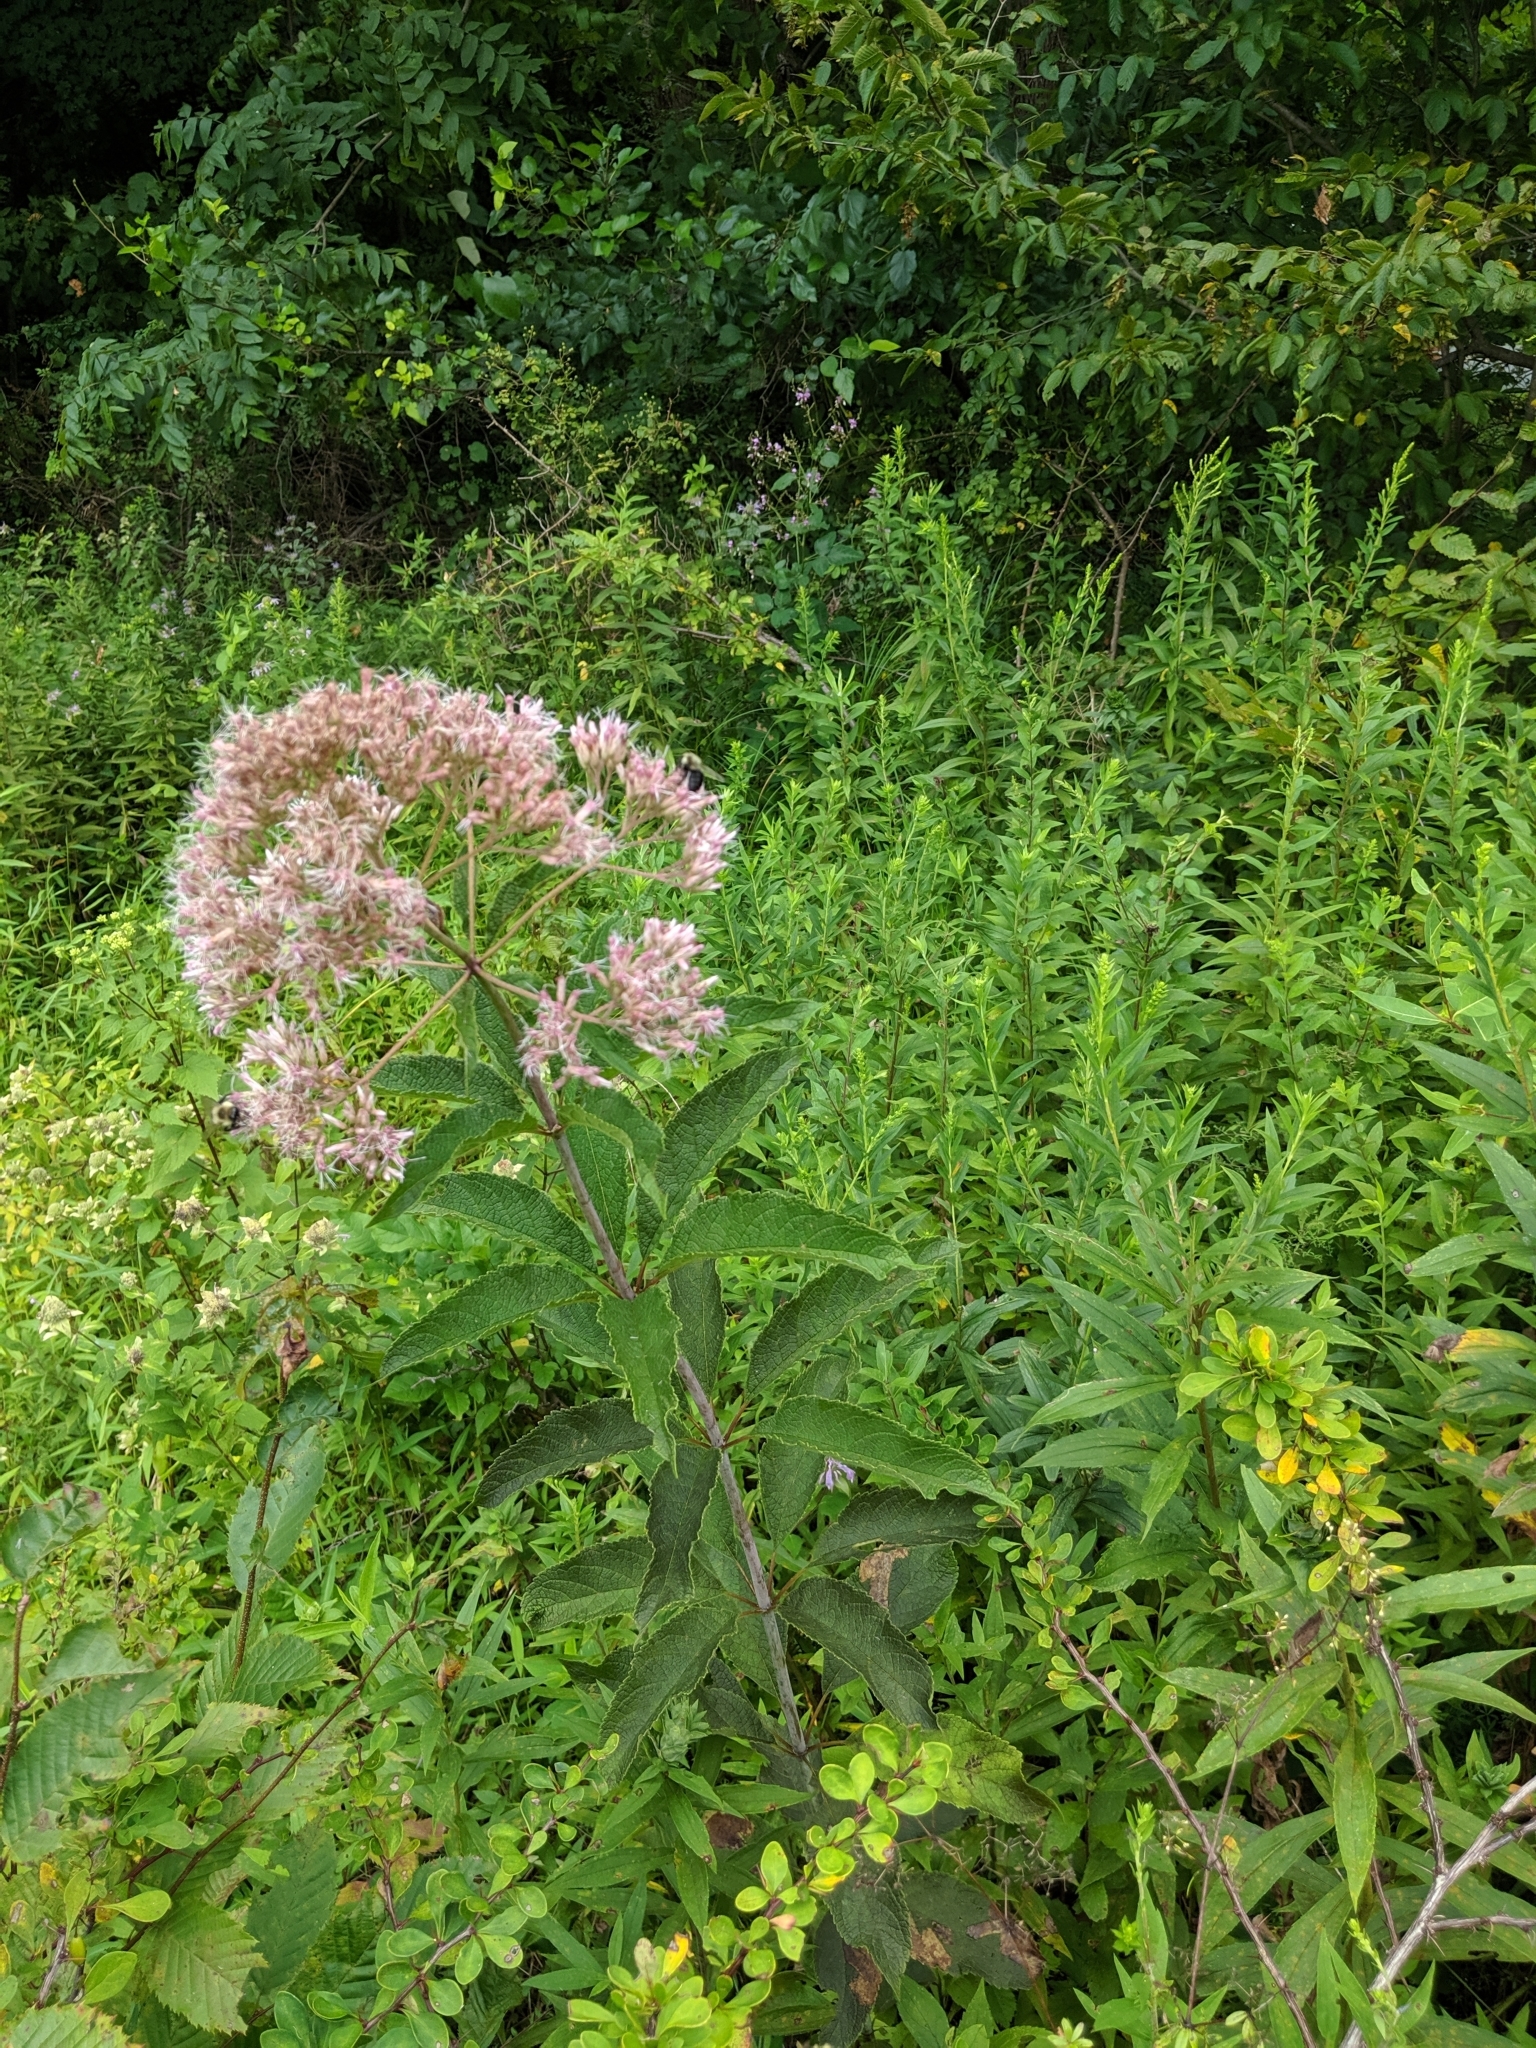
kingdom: Plantae
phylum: Tracheophyta
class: Magnoliopsida
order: Asterales
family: Asteraceae
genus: Eutrochium
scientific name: Eutrochium fistulosum
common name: Trumpetweed
